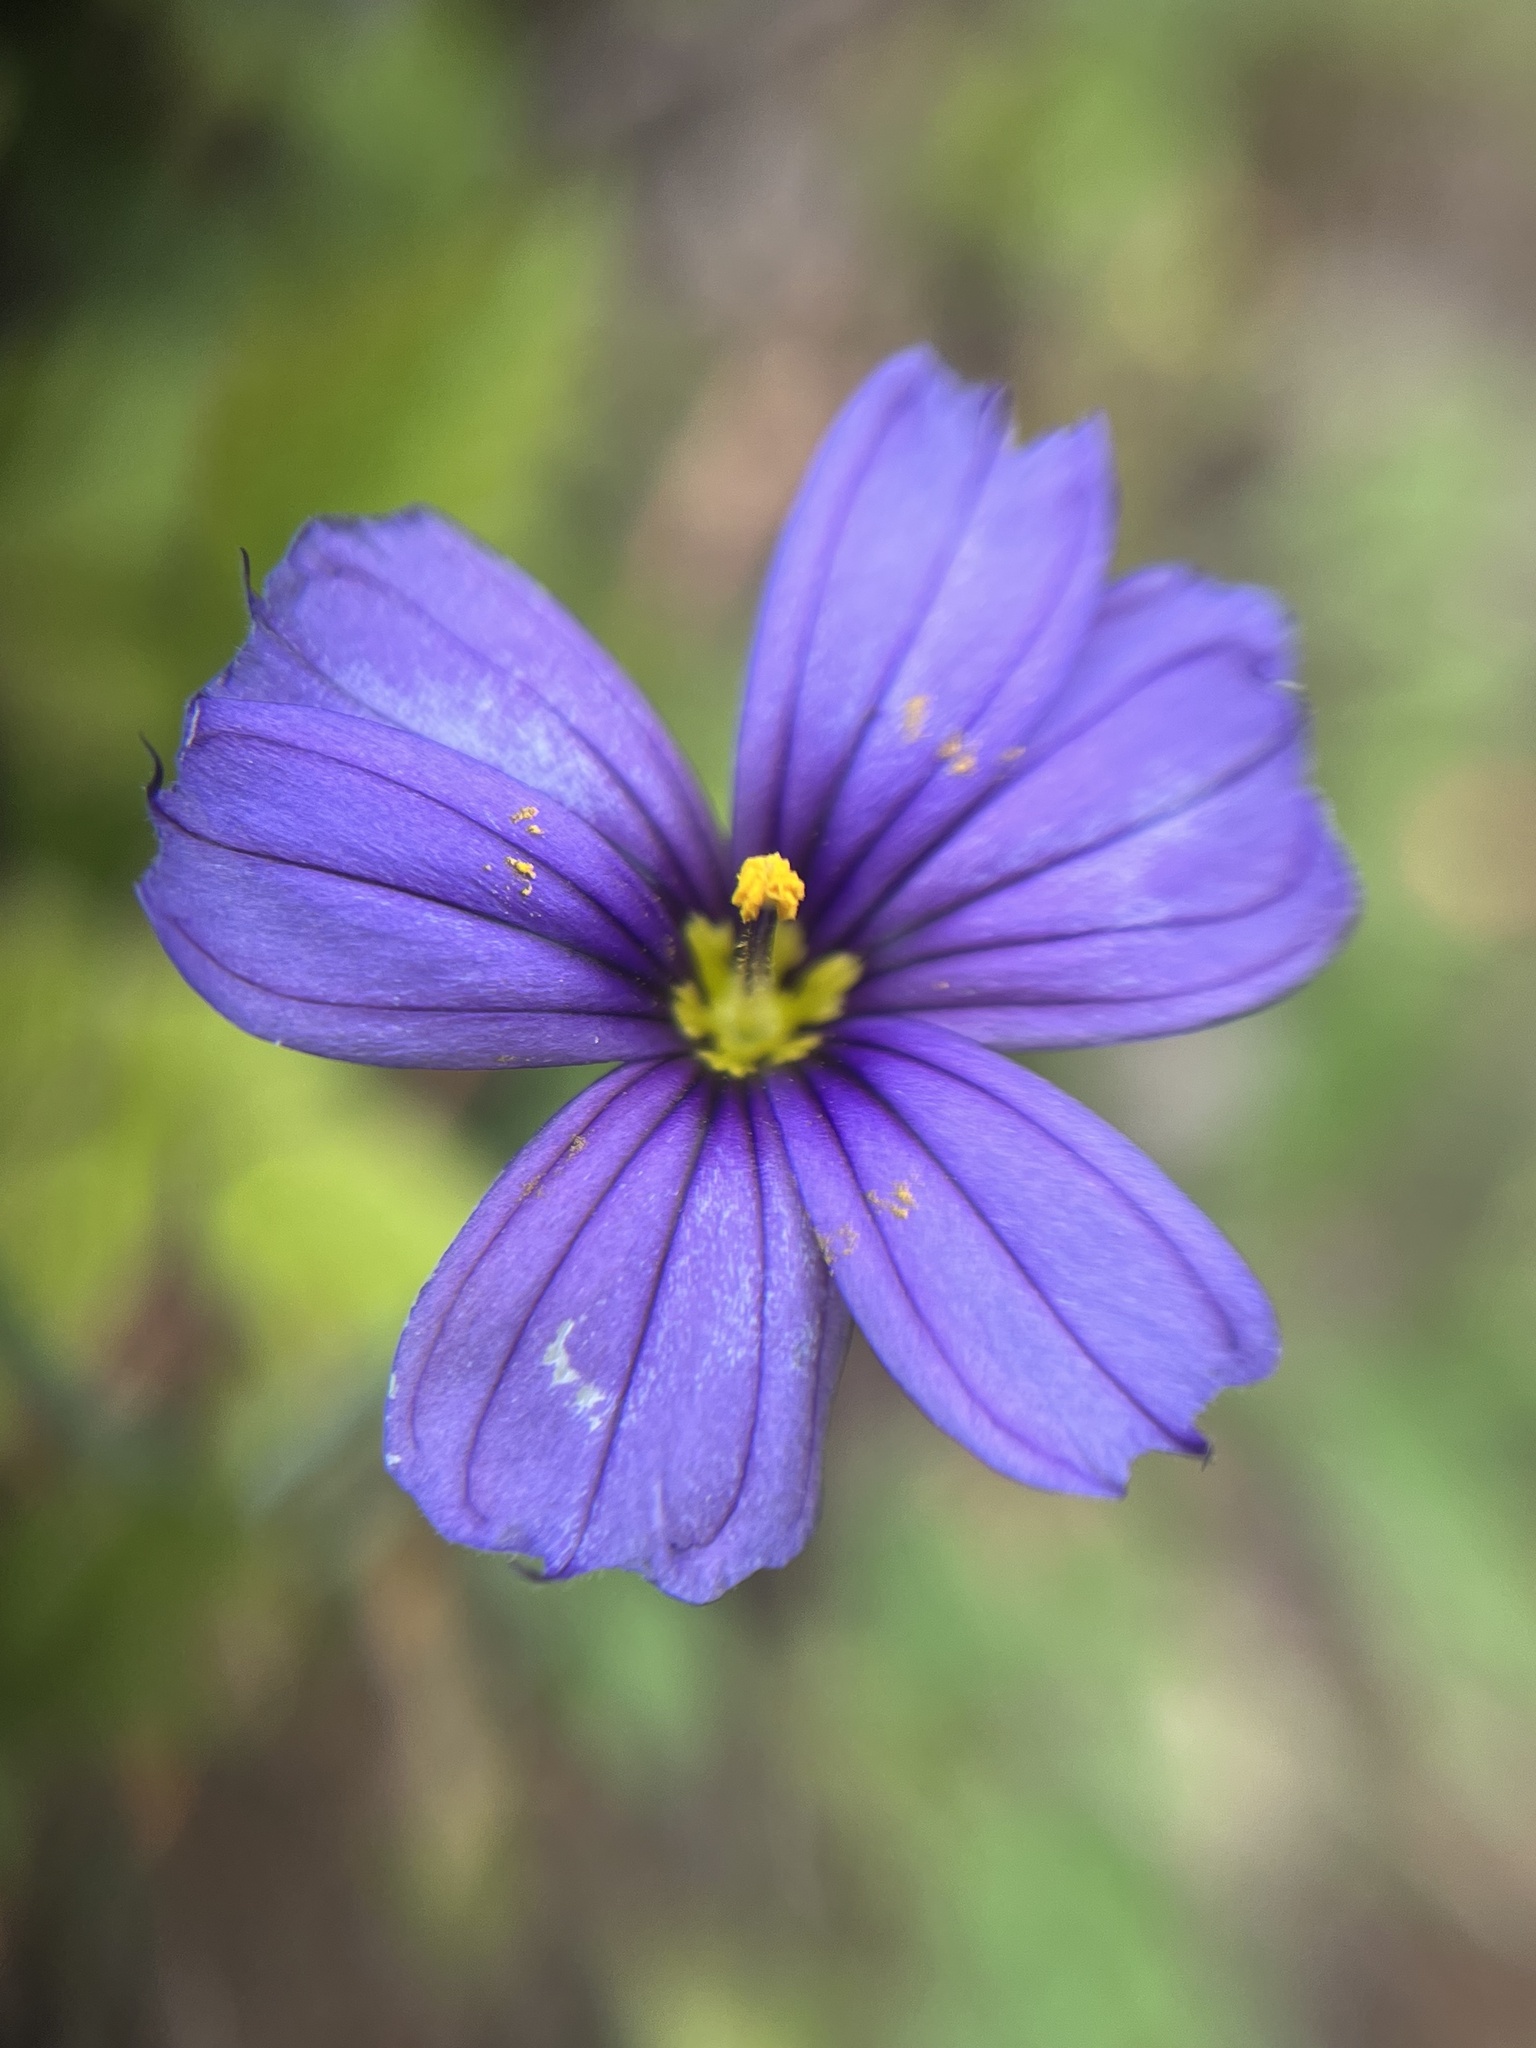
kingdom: Plantae
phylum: Tracheophyta
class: Liliopsida
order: Asparagales
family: Iridaceae
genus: Sisyrinchium
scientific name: Sisyrinchium bellum
